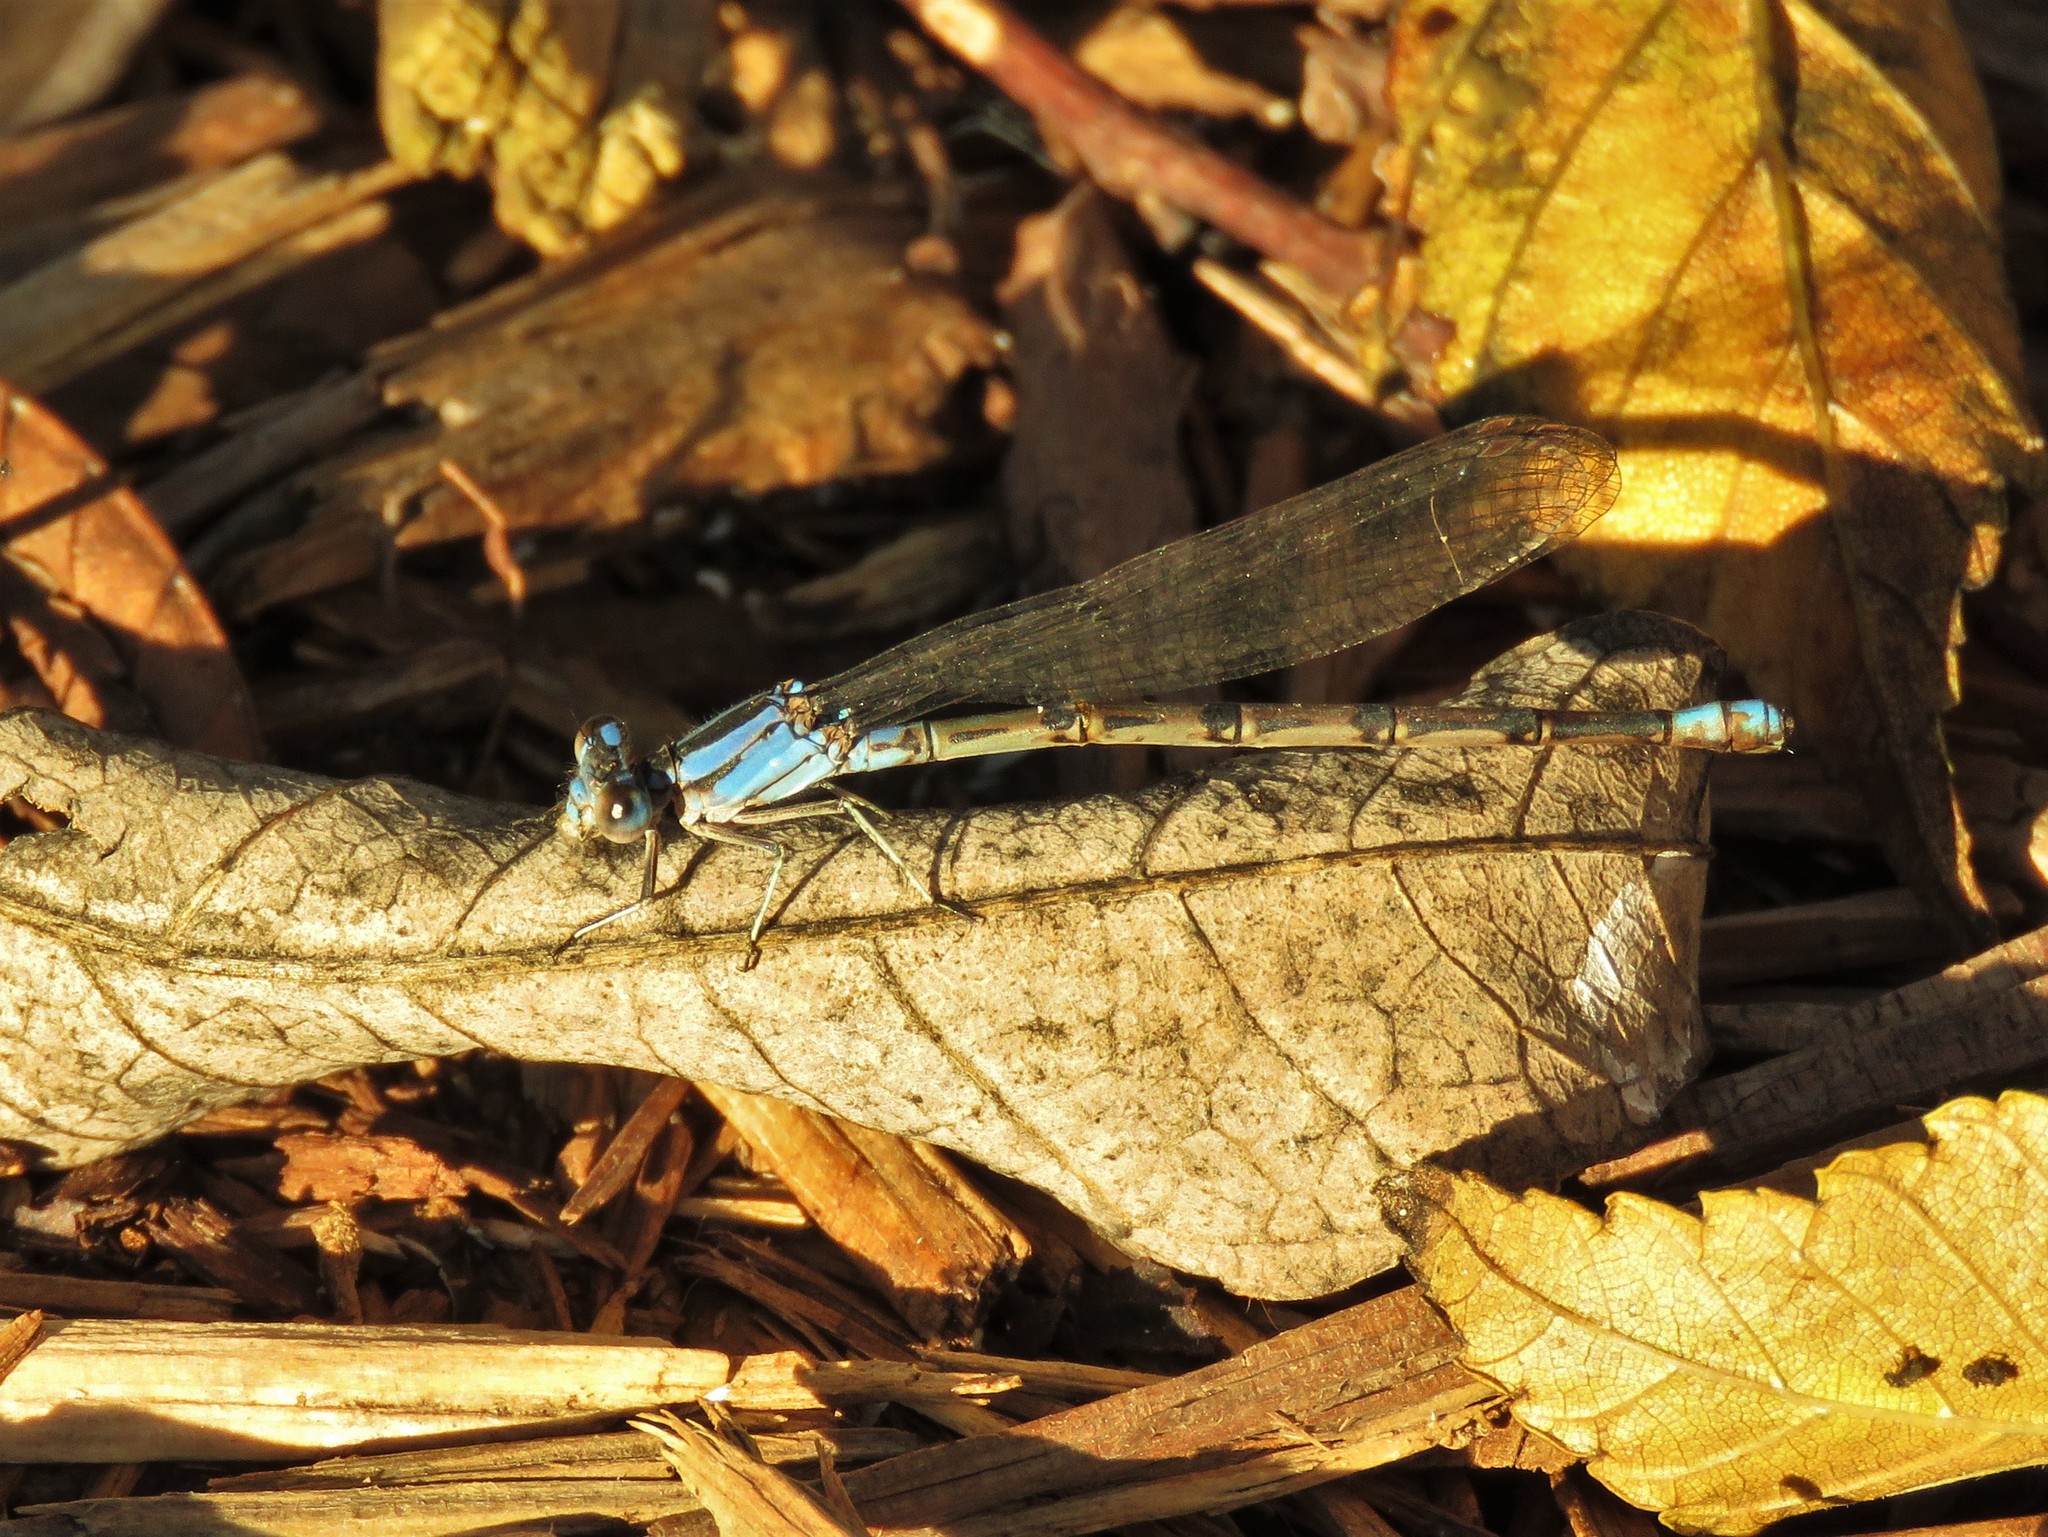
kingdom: Animalia
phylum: Arthropoda
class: Insecta
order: Odonata
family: Coenagrionidae
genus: Argia
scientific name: Argia funebris
